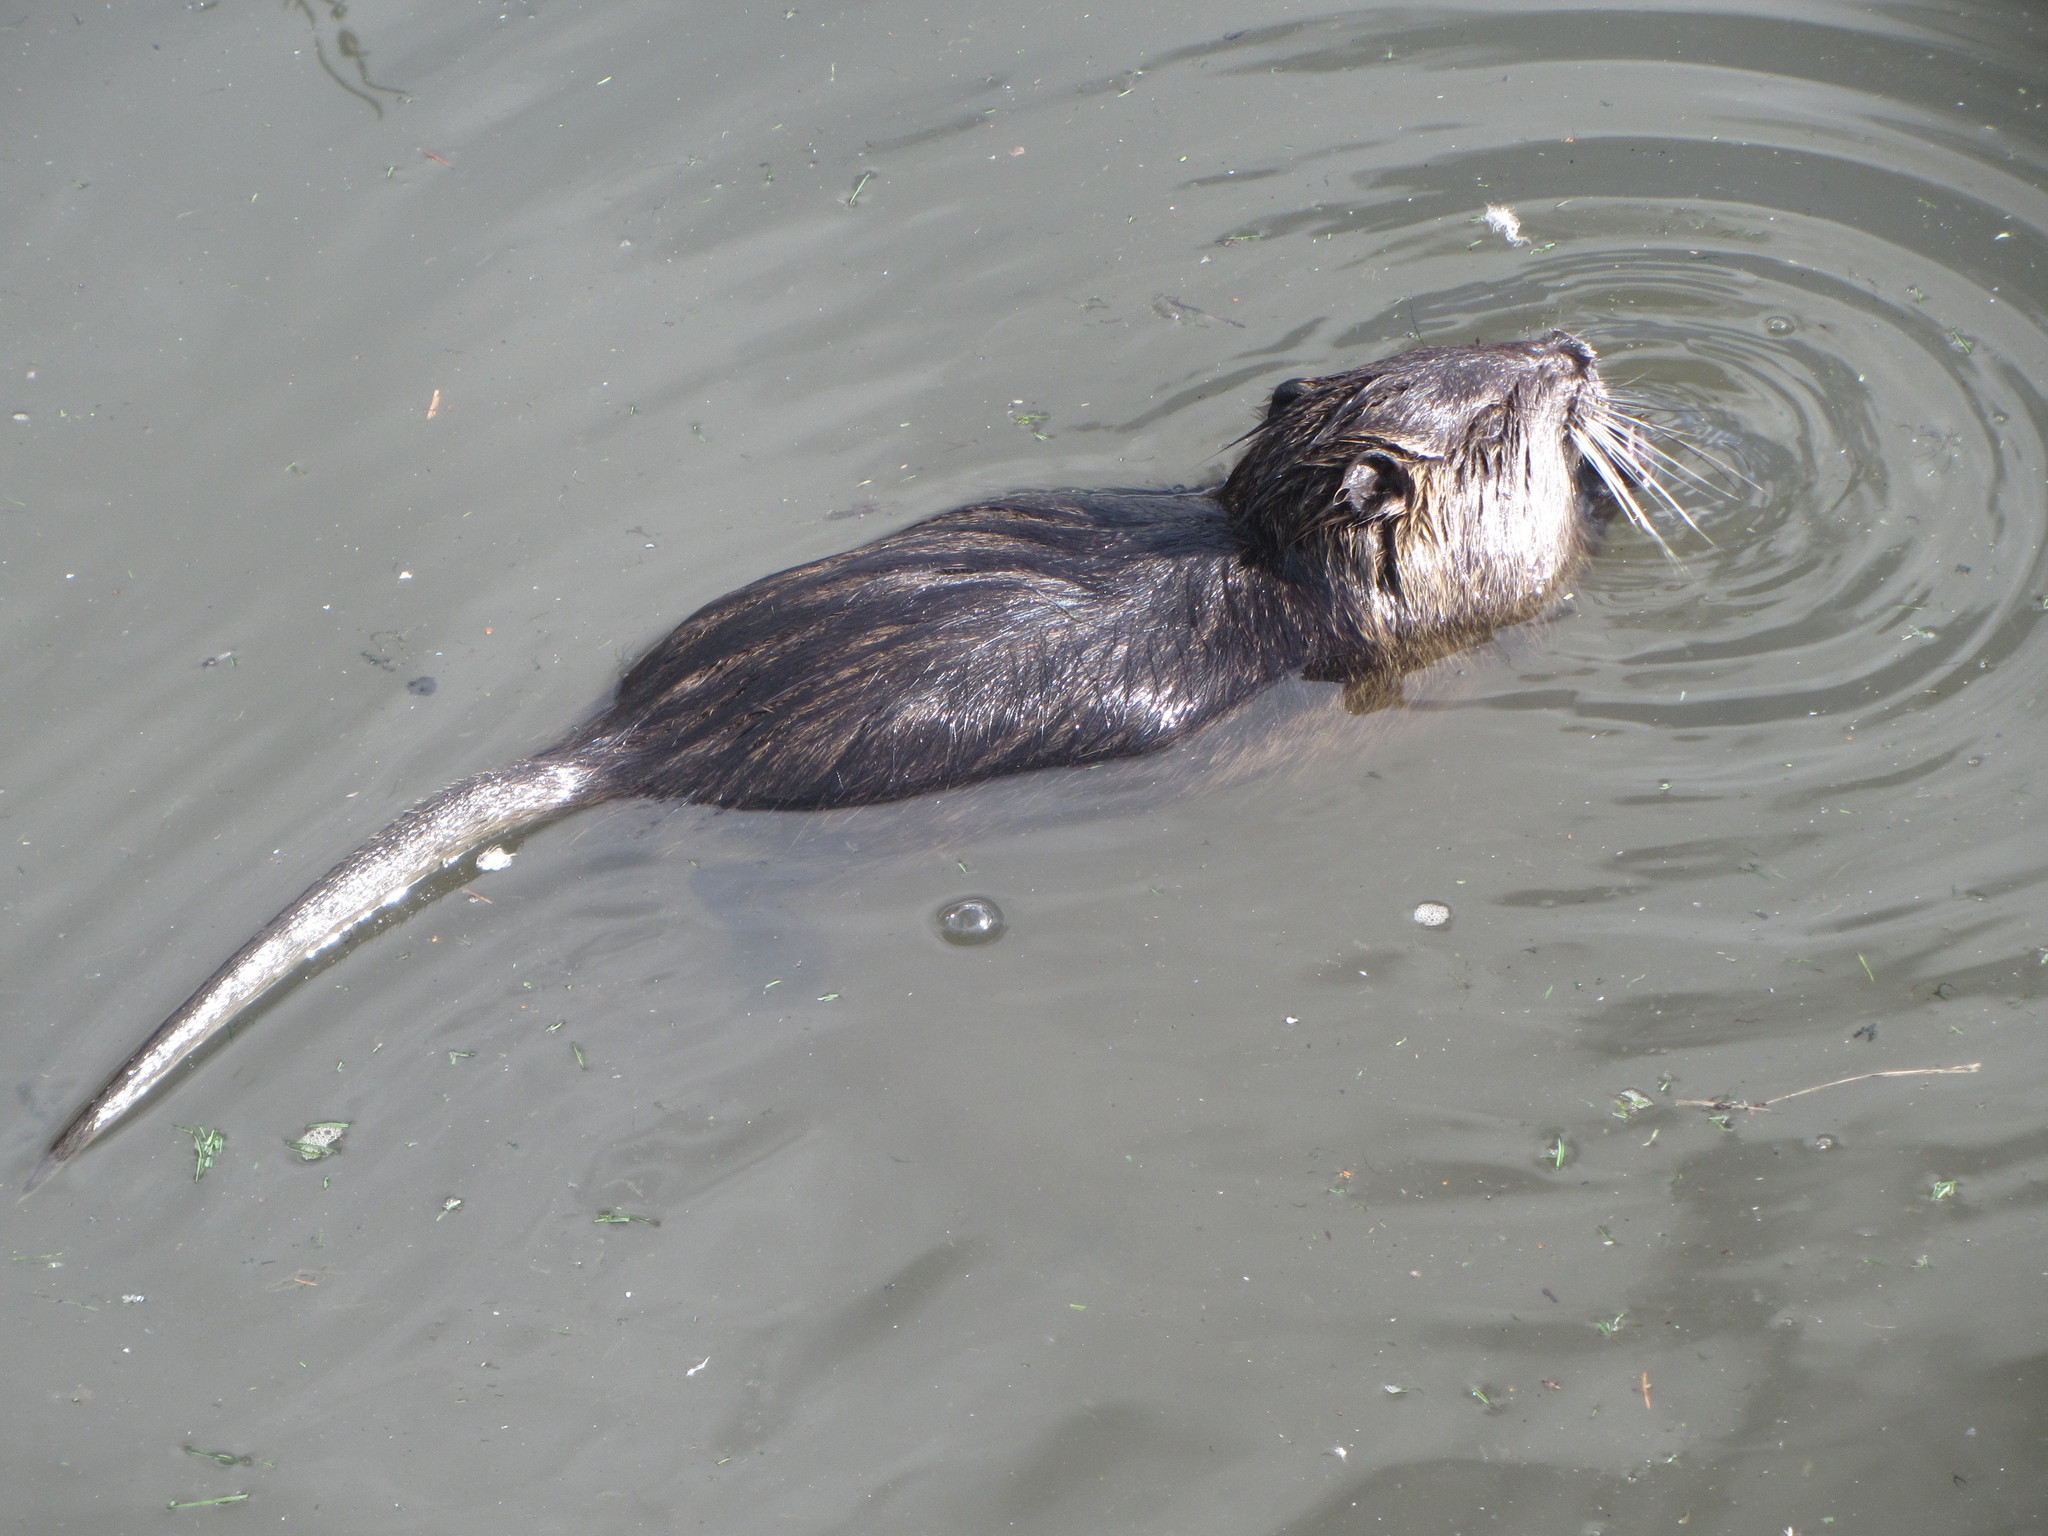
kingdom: Animalia
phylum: Chordata
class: Mammalia
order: Rodentia
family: Myocastoridae
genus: Myocastor
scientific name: Myocastor coypus
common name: Coypu
